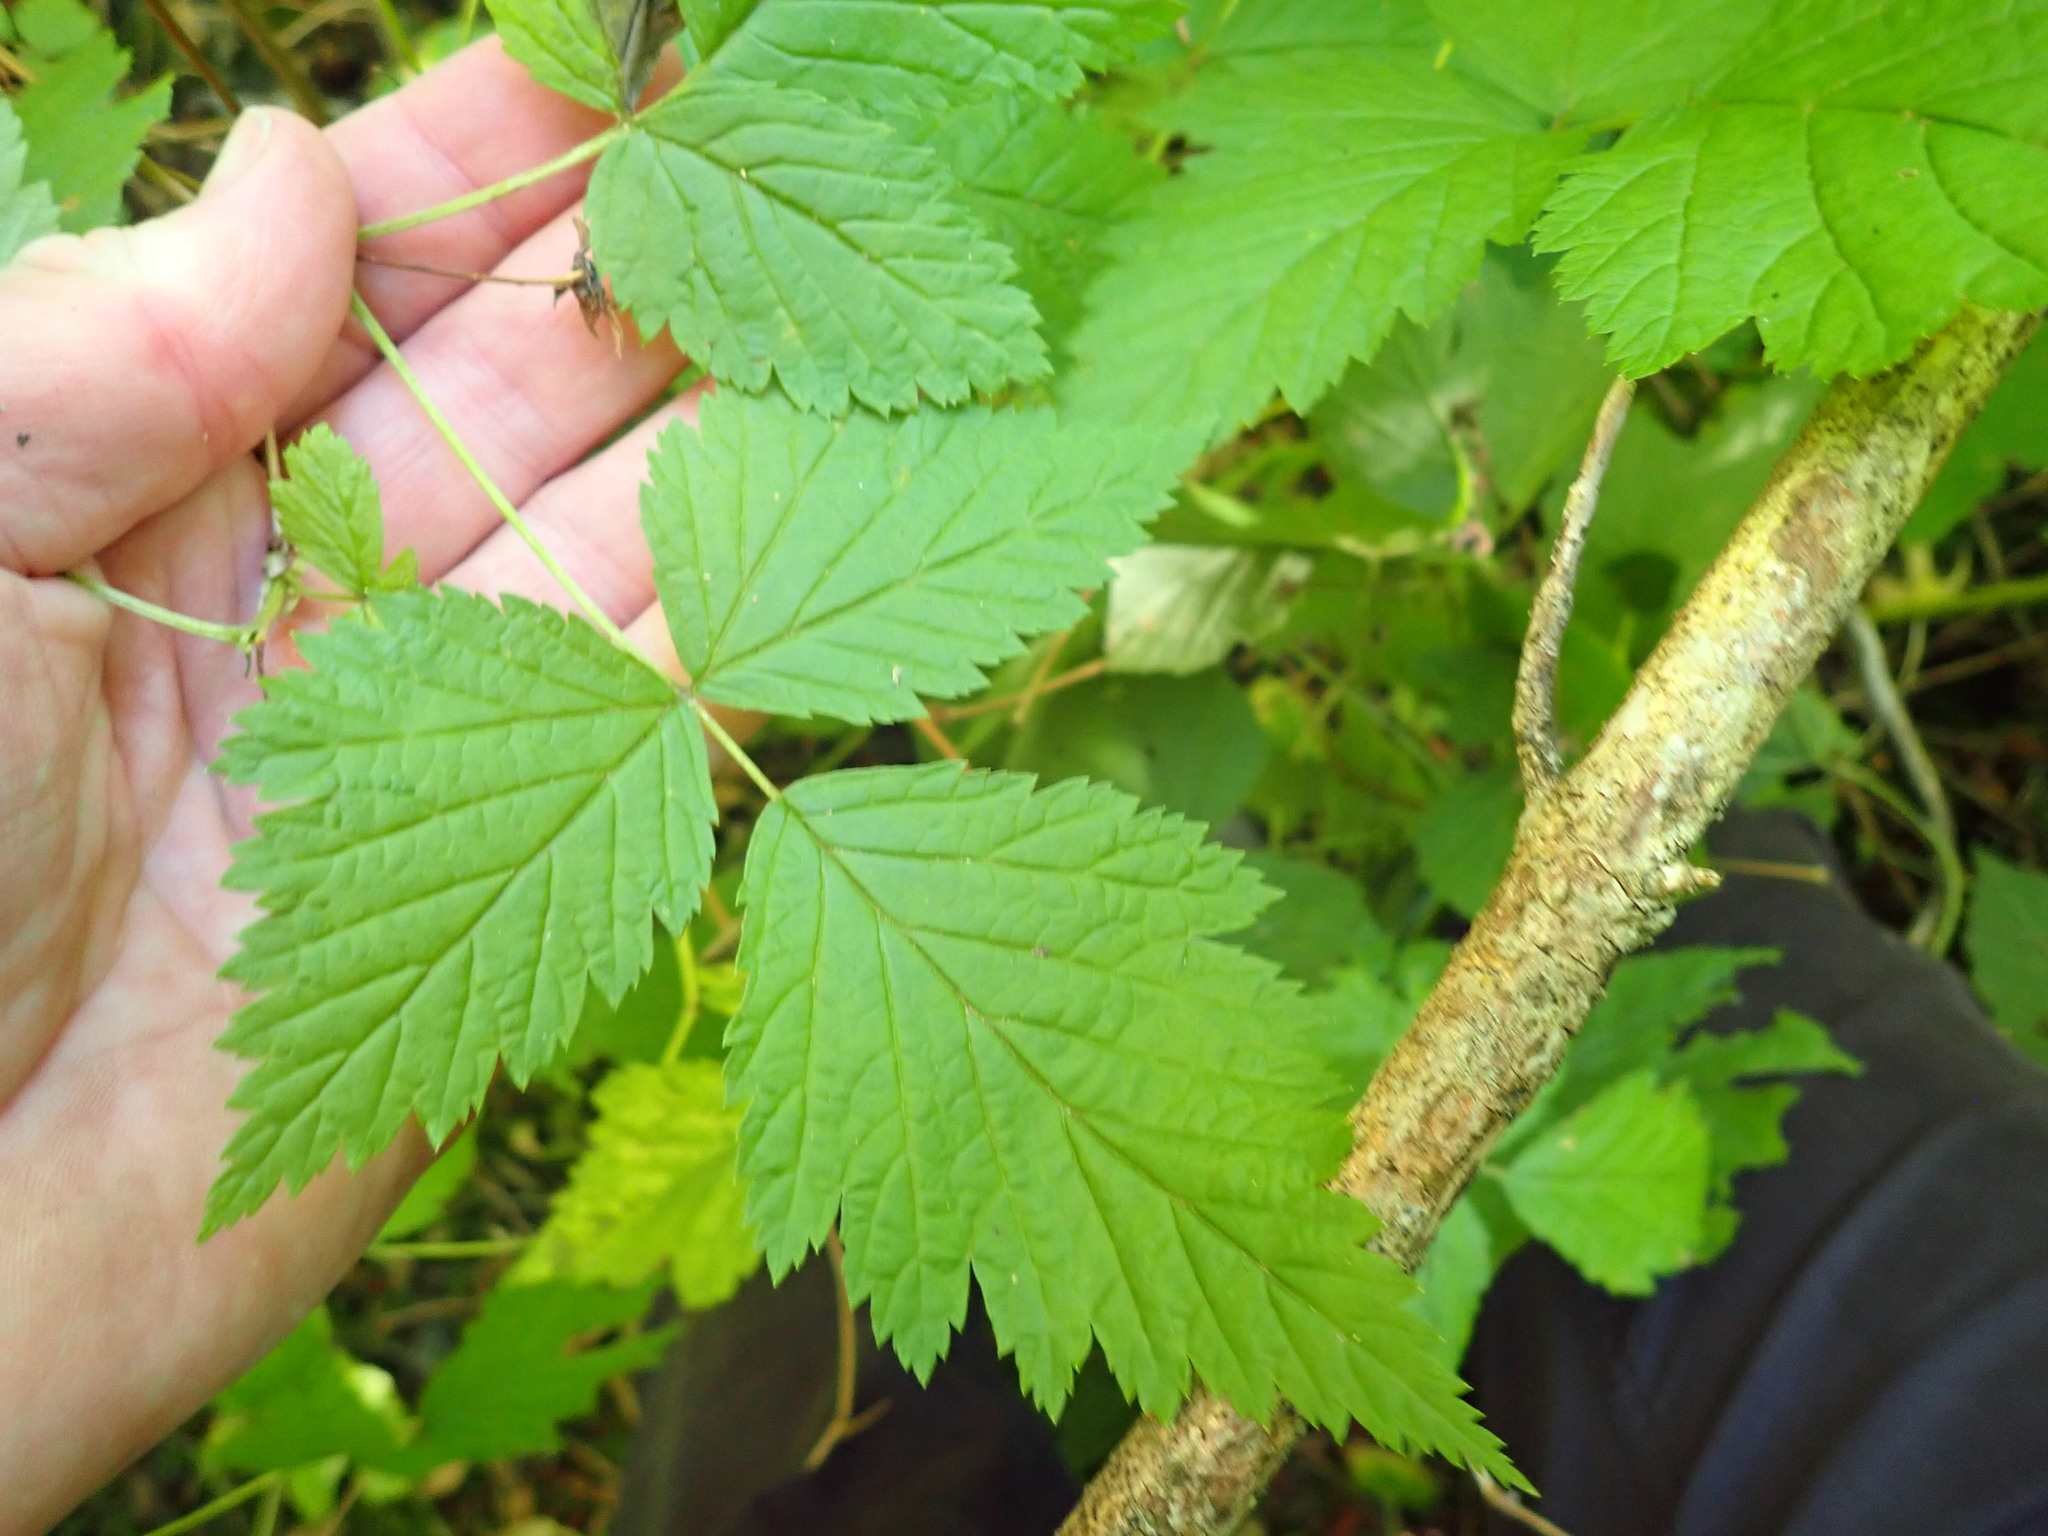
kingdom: Plantae
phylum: Tracheophyta
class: Magnoliopsida
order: Rosales
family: Rosaceae
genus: Rubus
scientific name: Rubus spectabilis
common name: Salmonberry
